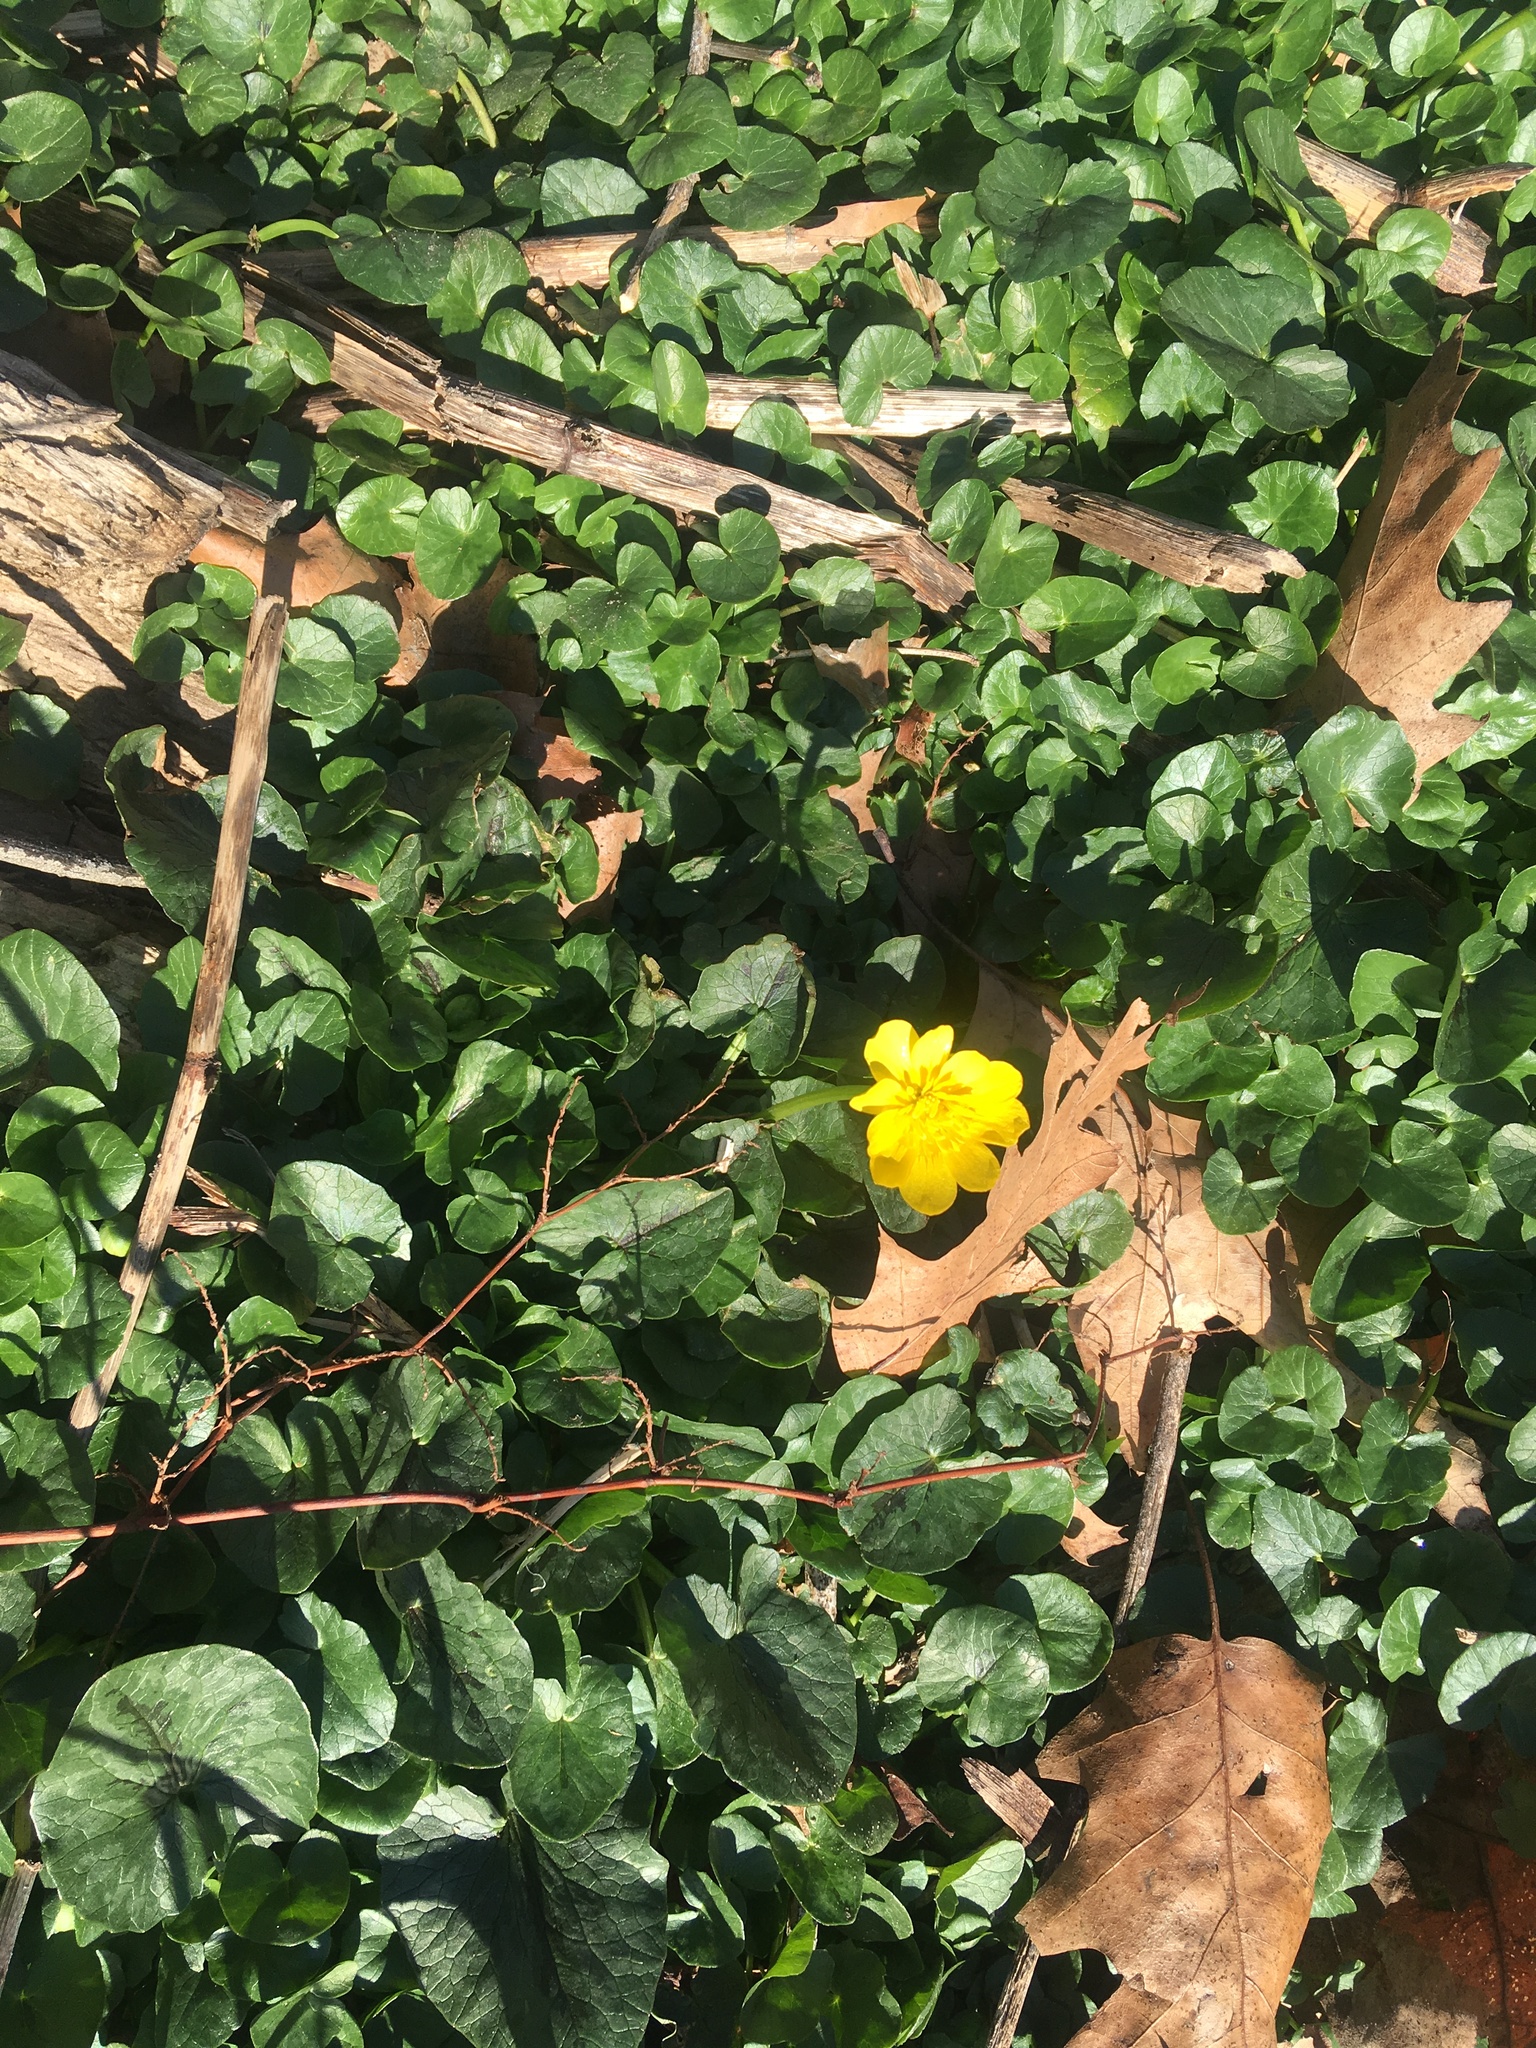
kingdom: Plantae
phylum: Tracheophyta
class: Magnoliopsida
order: Ranunculales
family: Ranunculaceae
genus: Ficaria
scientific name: Ficaria verna
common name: Lesser celandine
